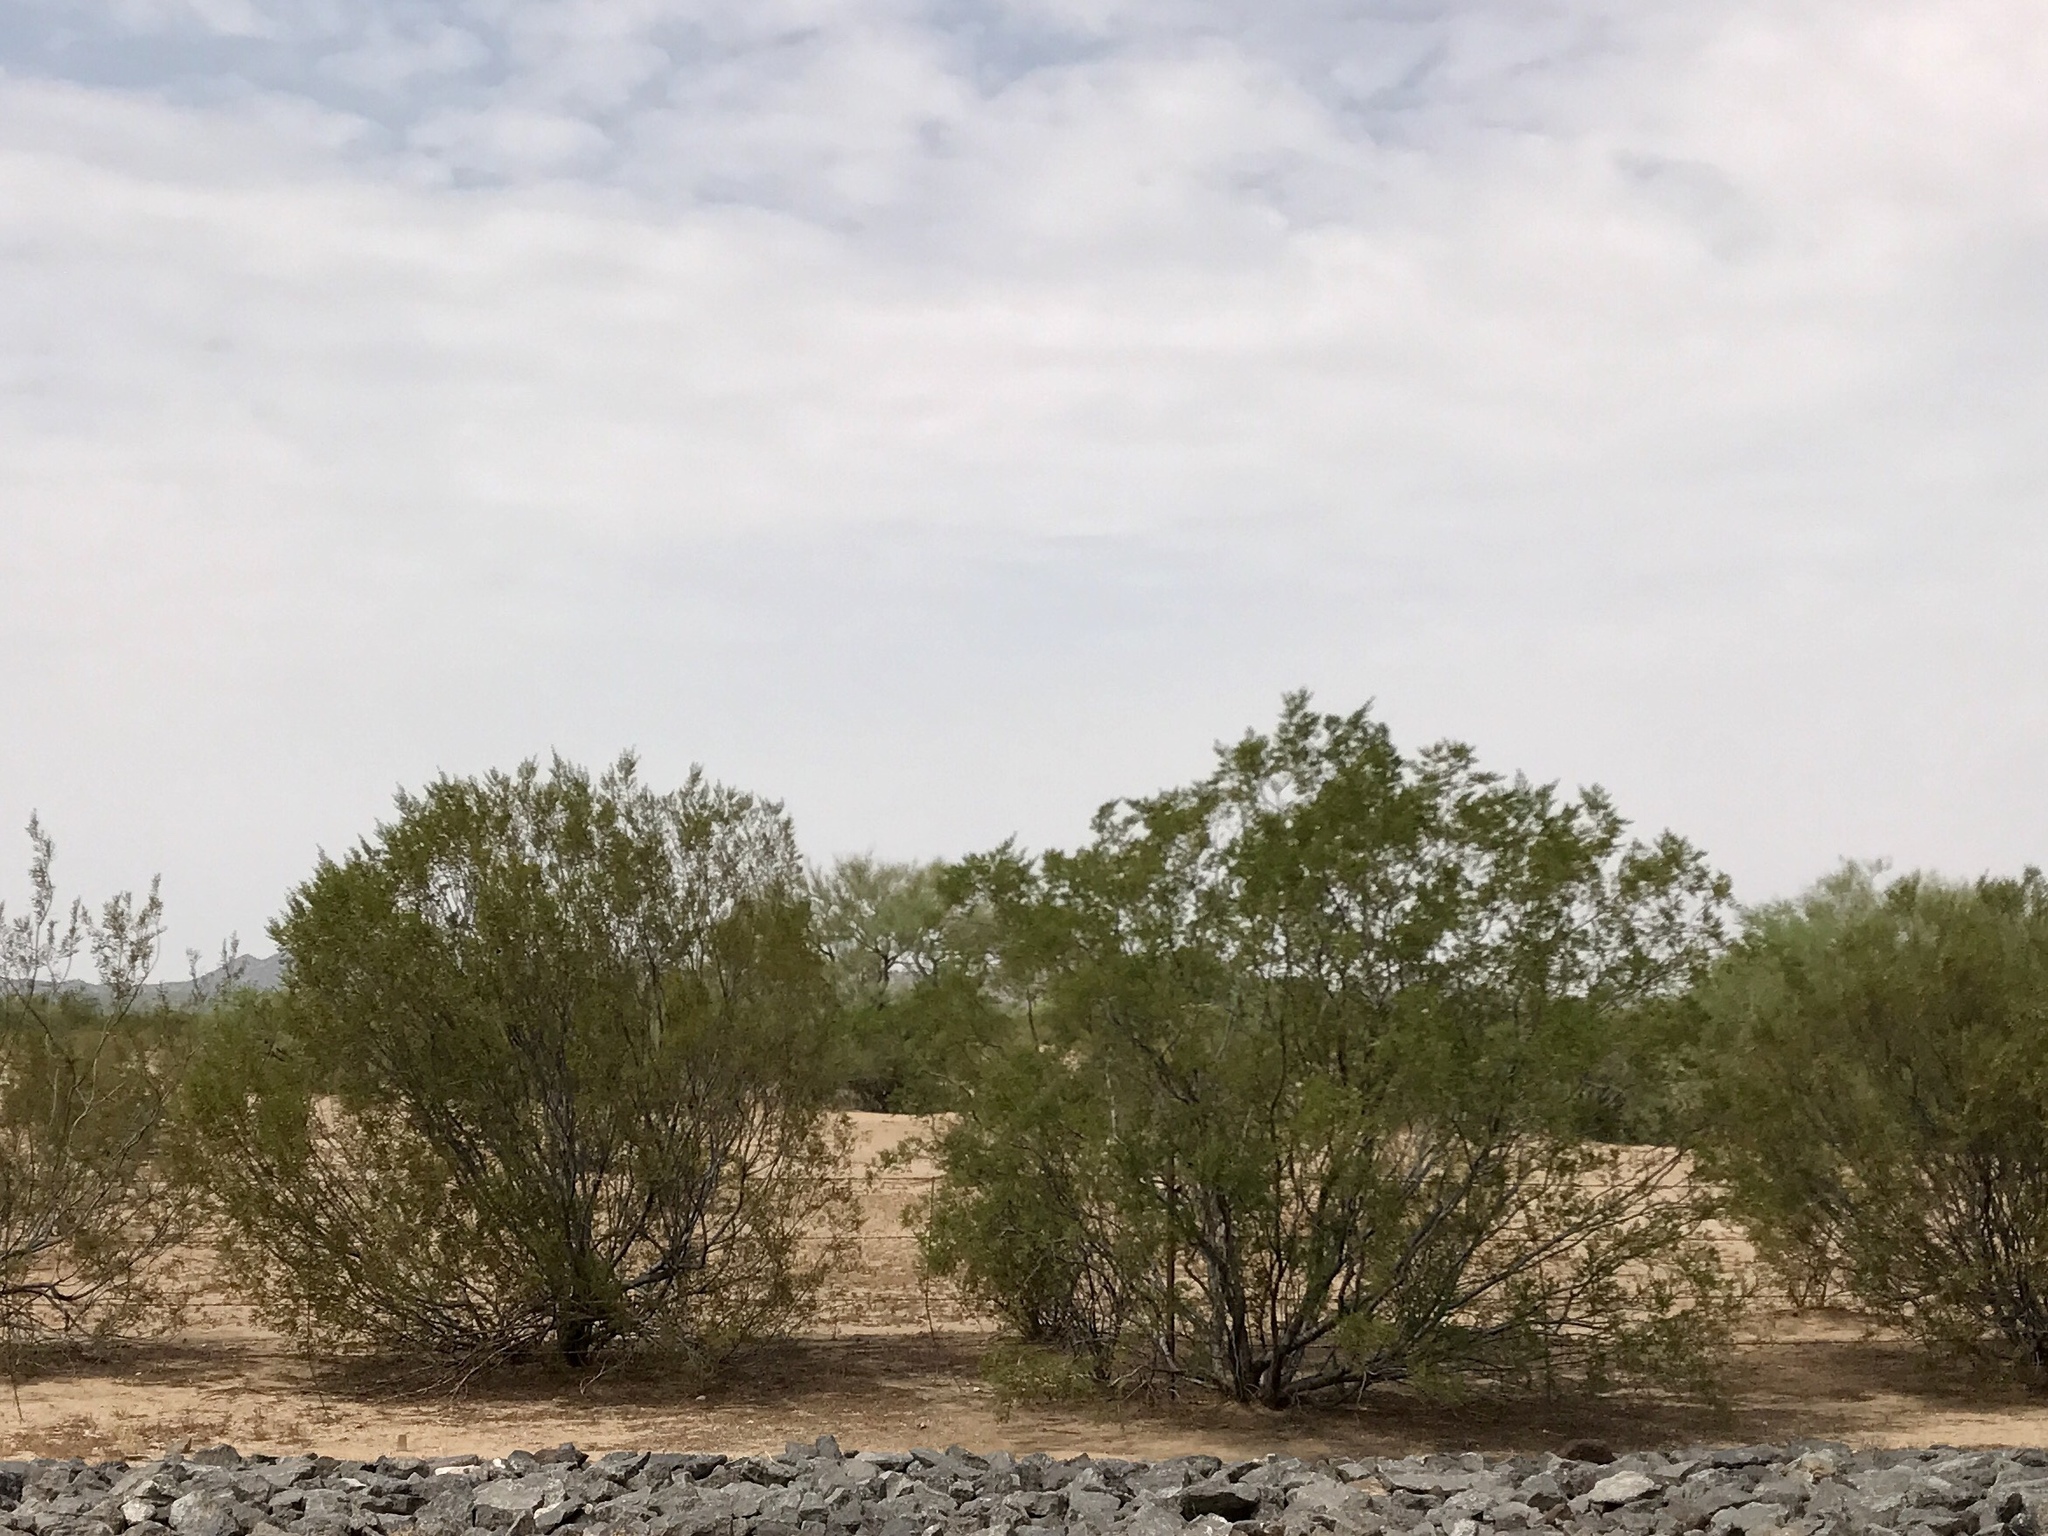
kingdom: Plantae
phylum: Tracheophyta
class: Magnoliopsida
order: Zygophyllales
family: Zygophyllaceae
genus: Larrea
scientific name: Larrea tridentata
